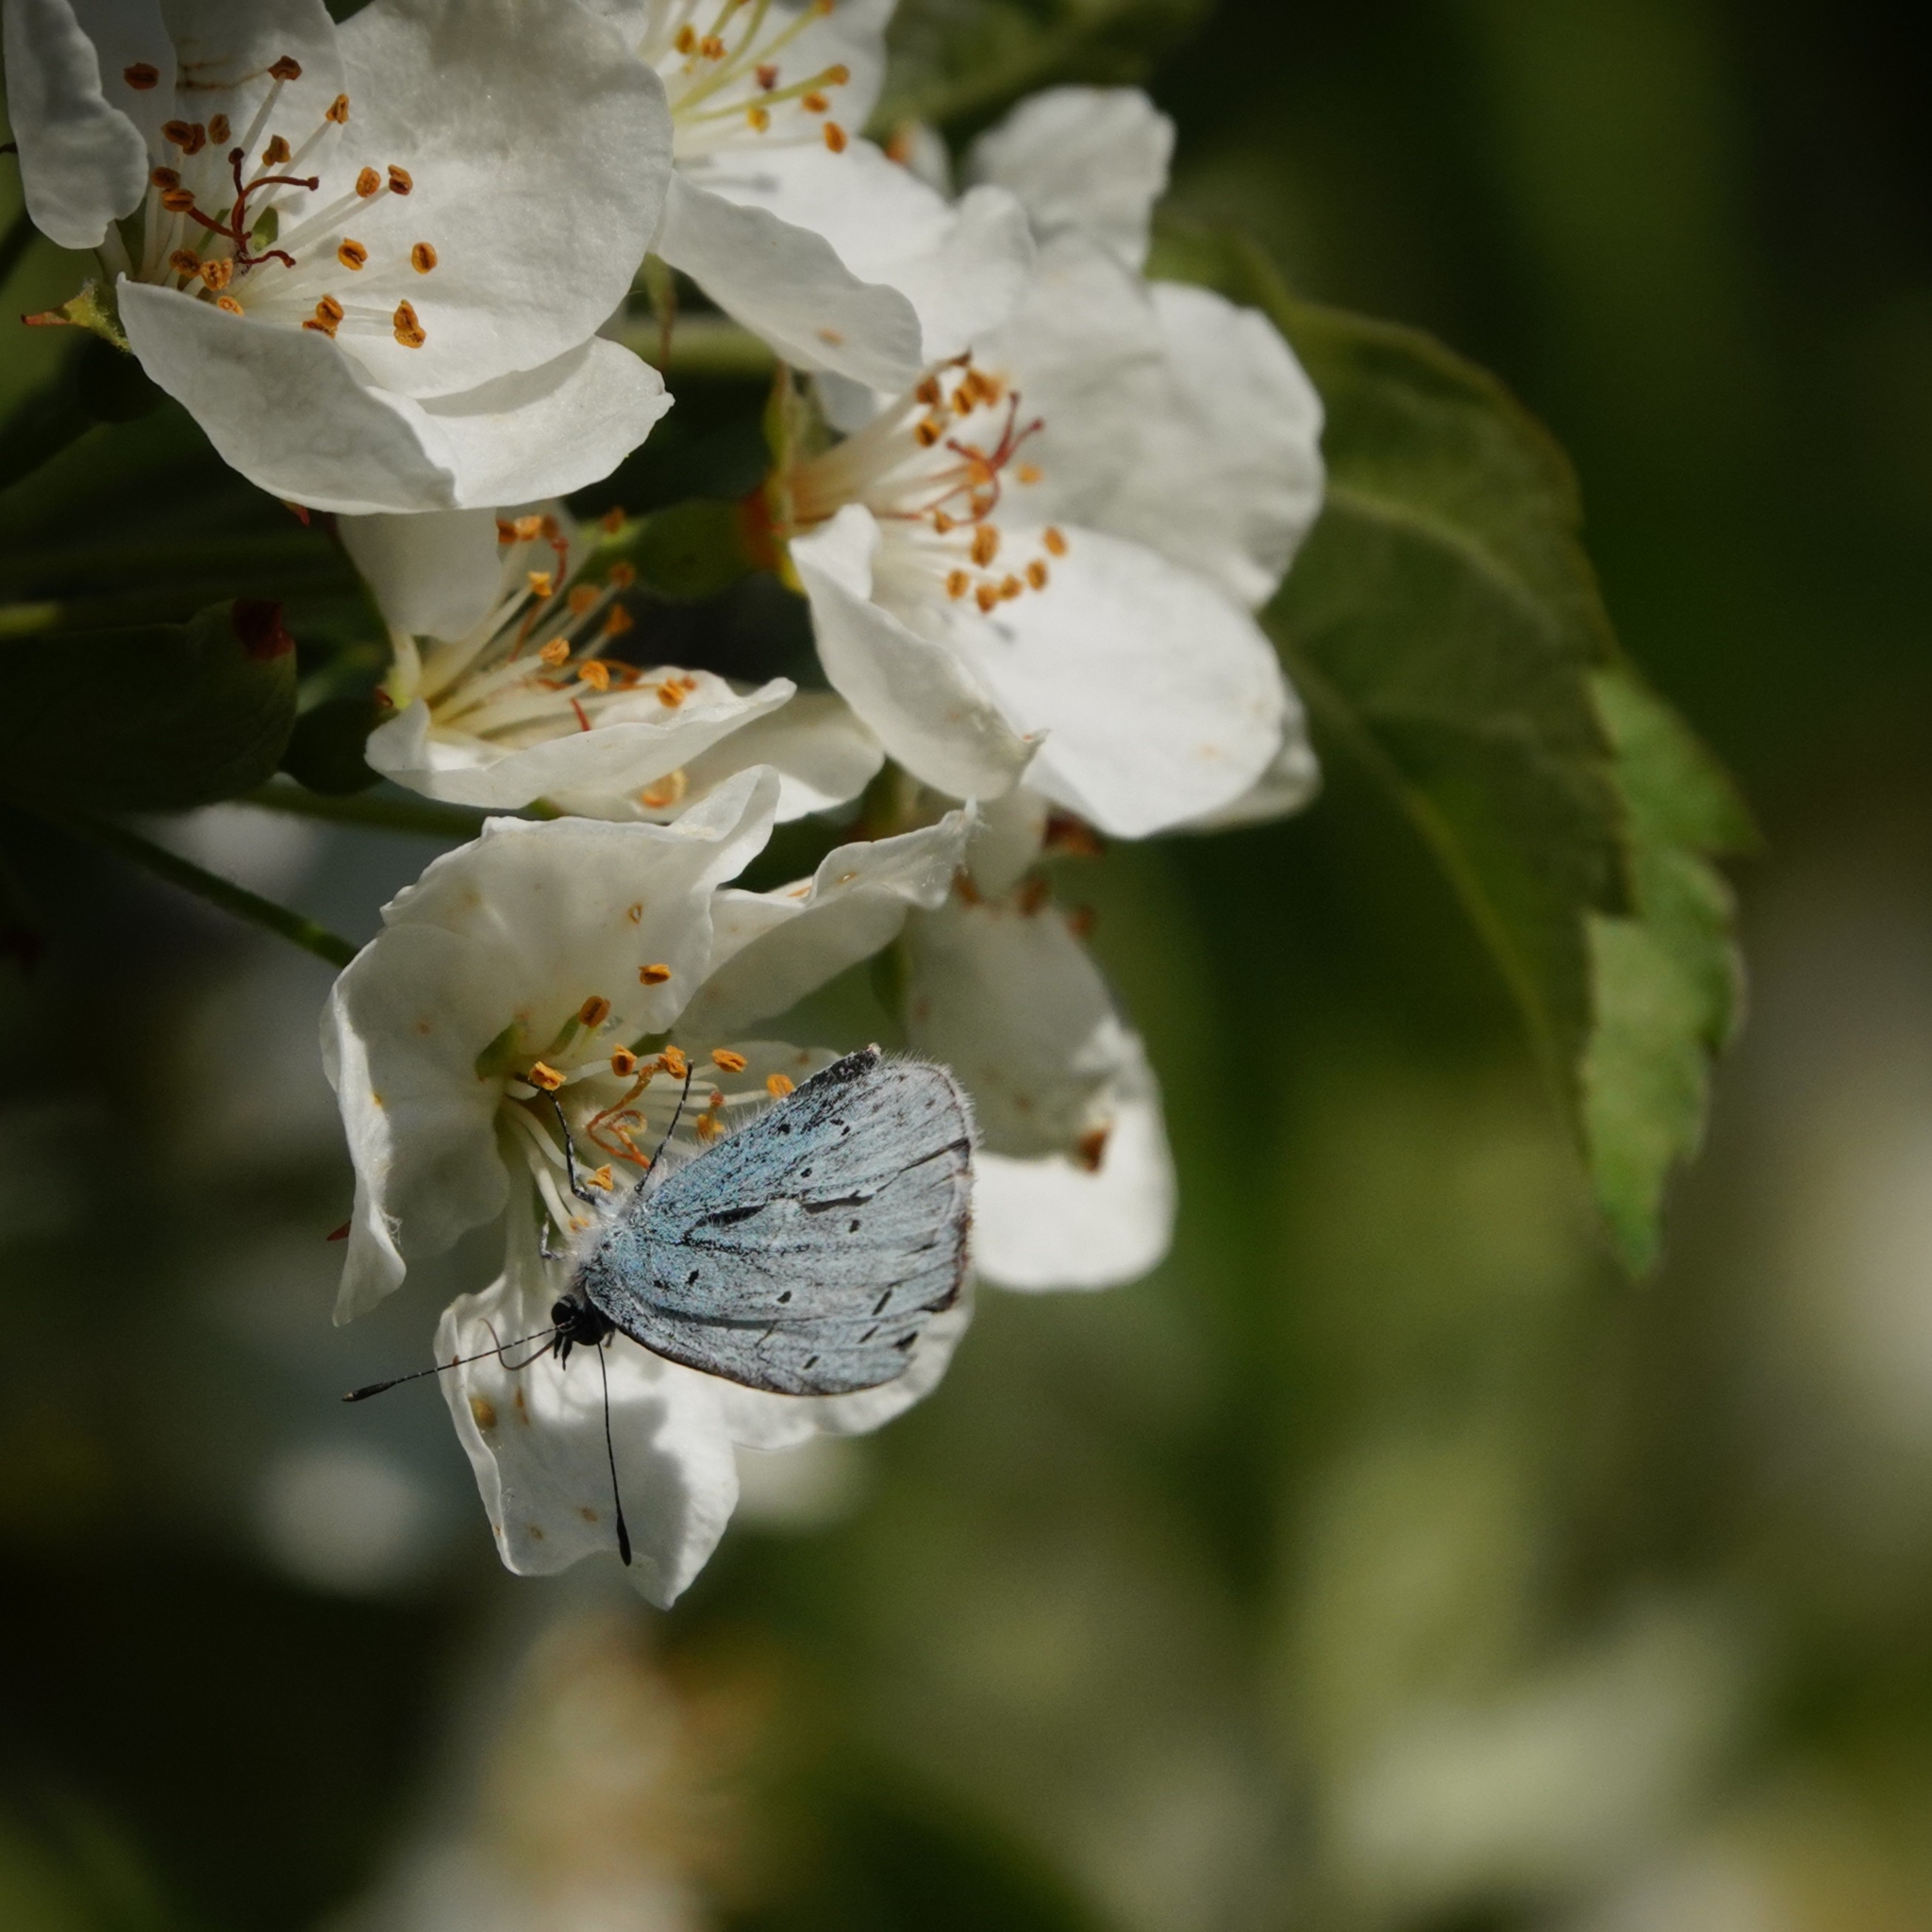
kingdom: Animalia
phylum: Arthropoda
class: Insecta
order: Lepidoptera
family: Lycaenidae
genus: Celastrina
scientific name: Celastrina argiolus
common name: Holly blue
